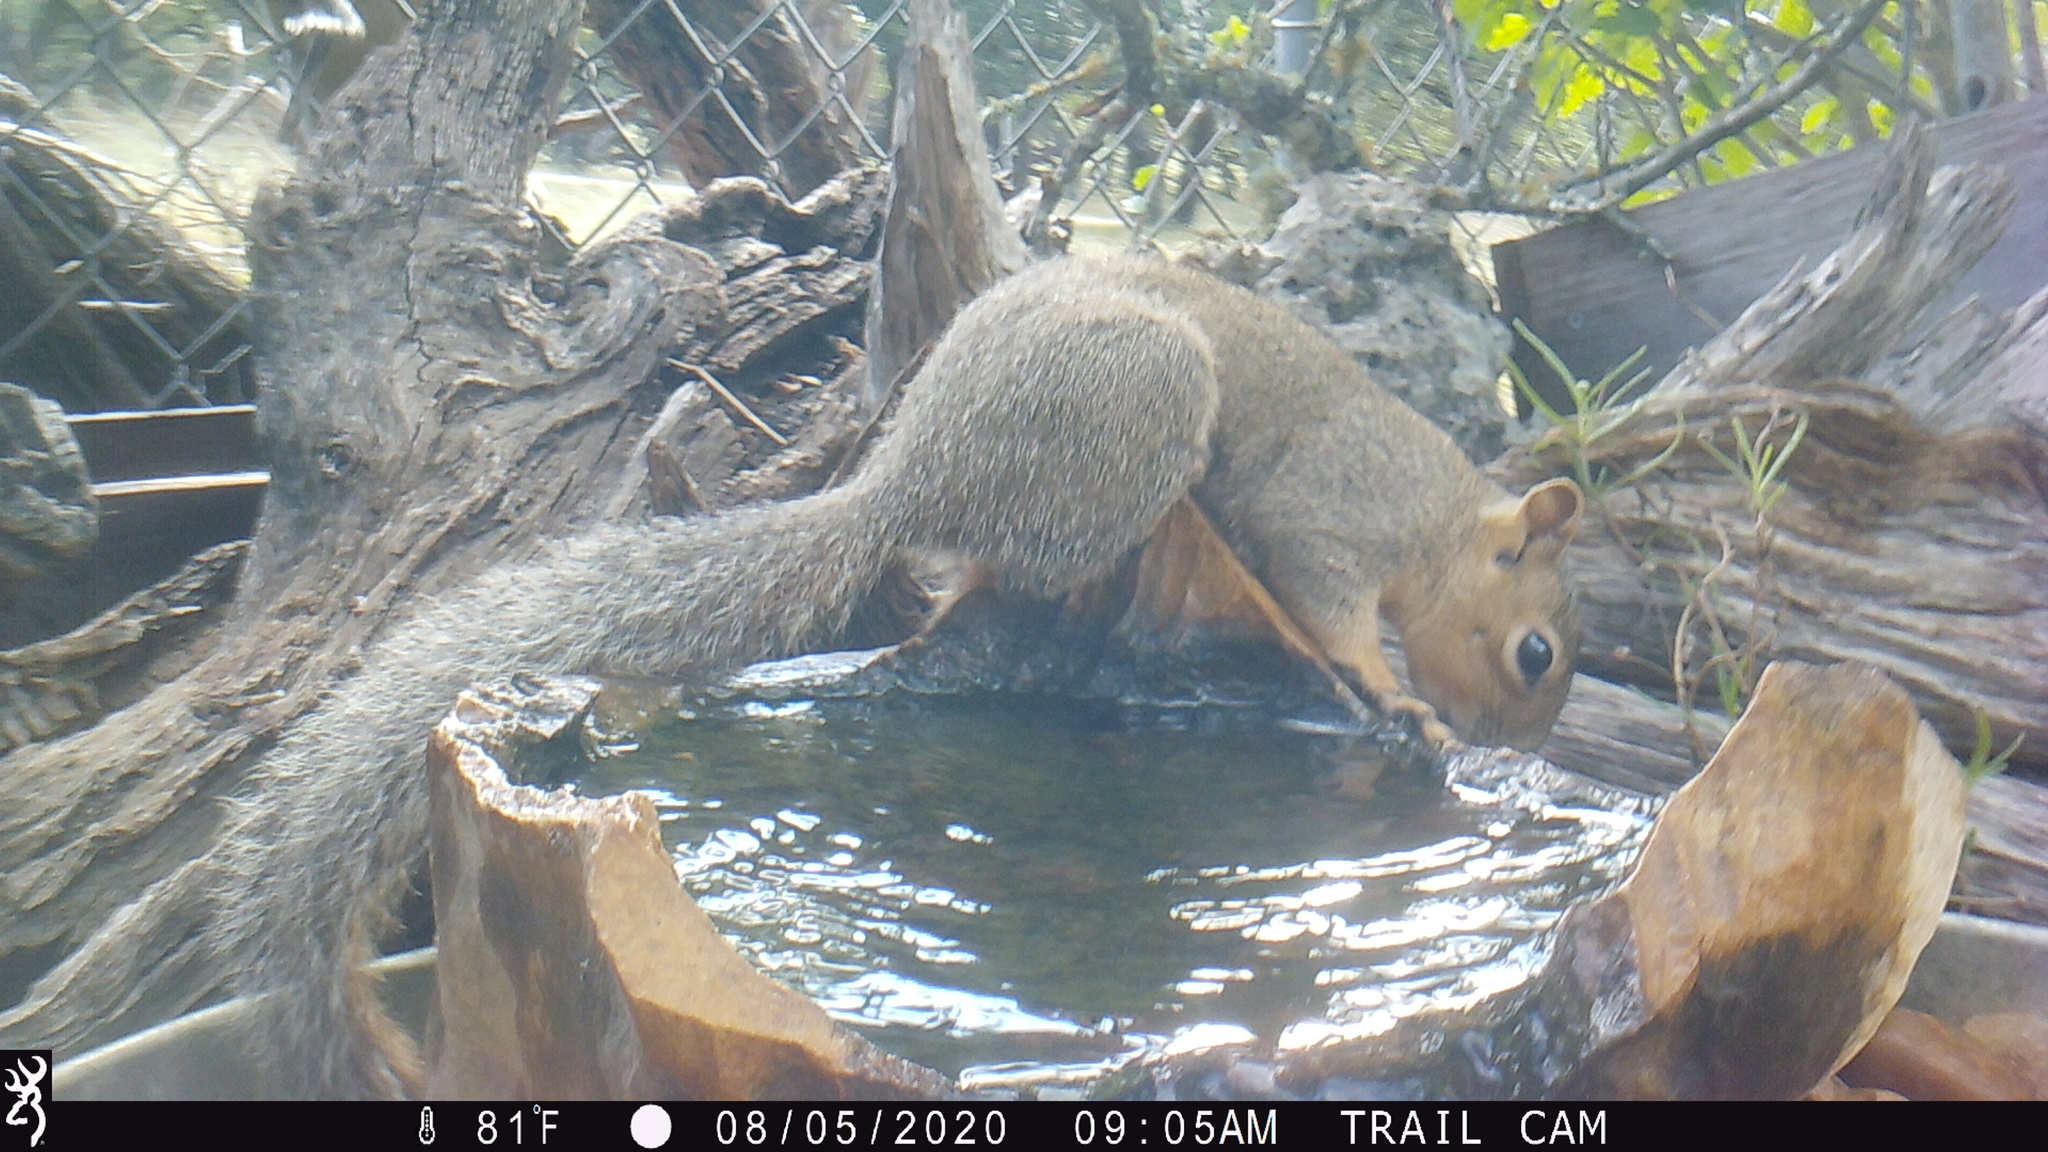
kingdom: Animalia
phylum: Chordata
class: Mammalia
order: Rodentia
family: Sciuridae
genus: Sciurus
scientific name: Sciurus niger
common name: Fox squirrel
